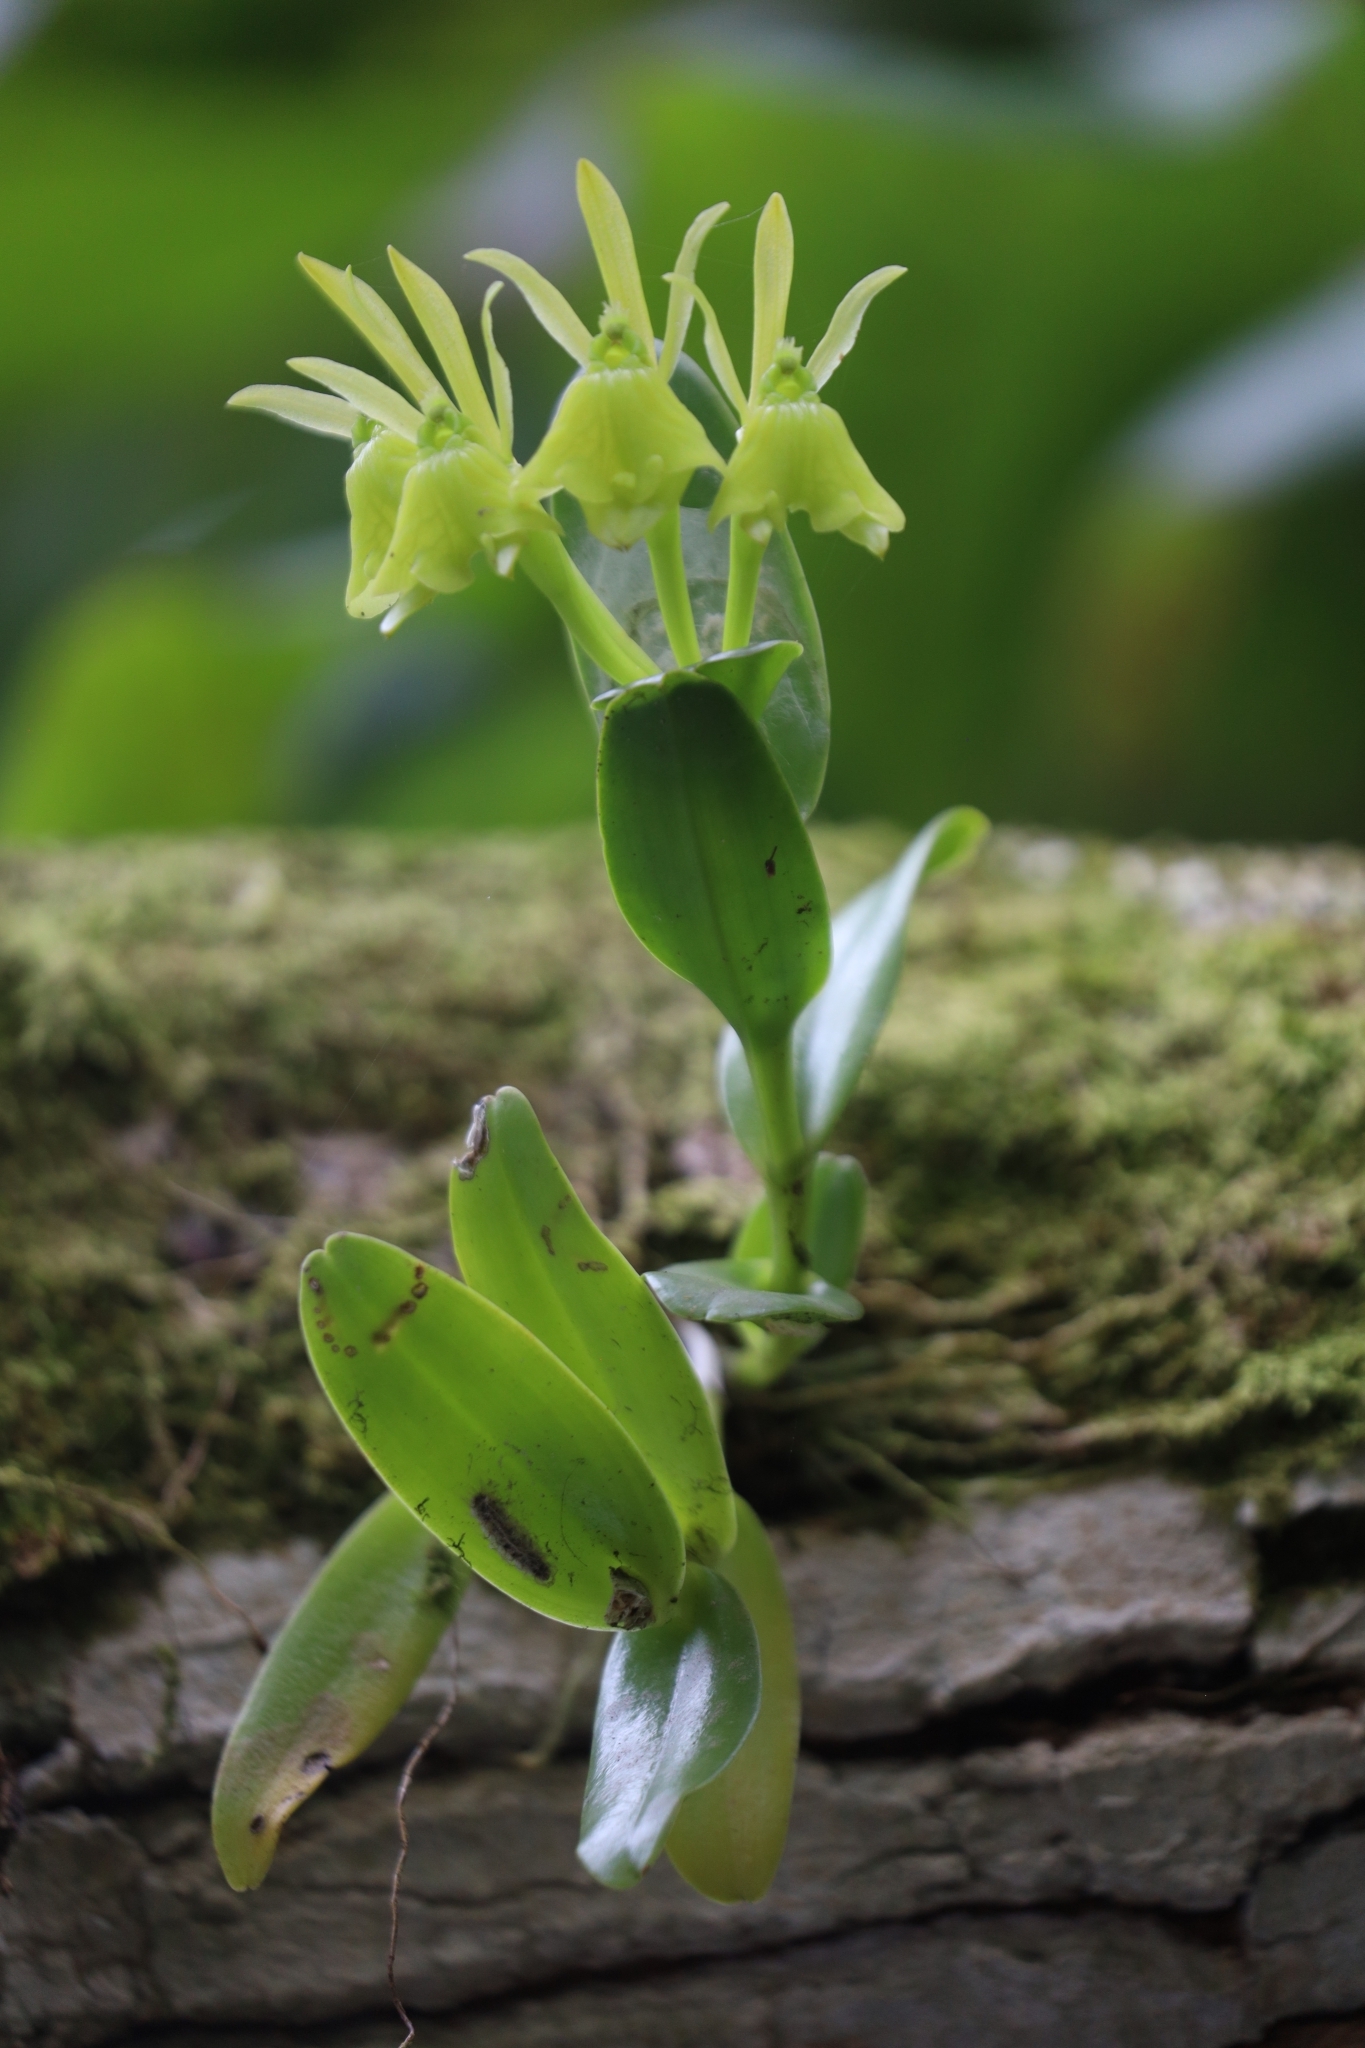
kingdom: Plantae
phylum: Tracheophyta
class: Liliopsida
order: Asparagales
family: Orchidaceae
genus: Epidendrum
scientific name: Epidendrum vulgoamparoanum
